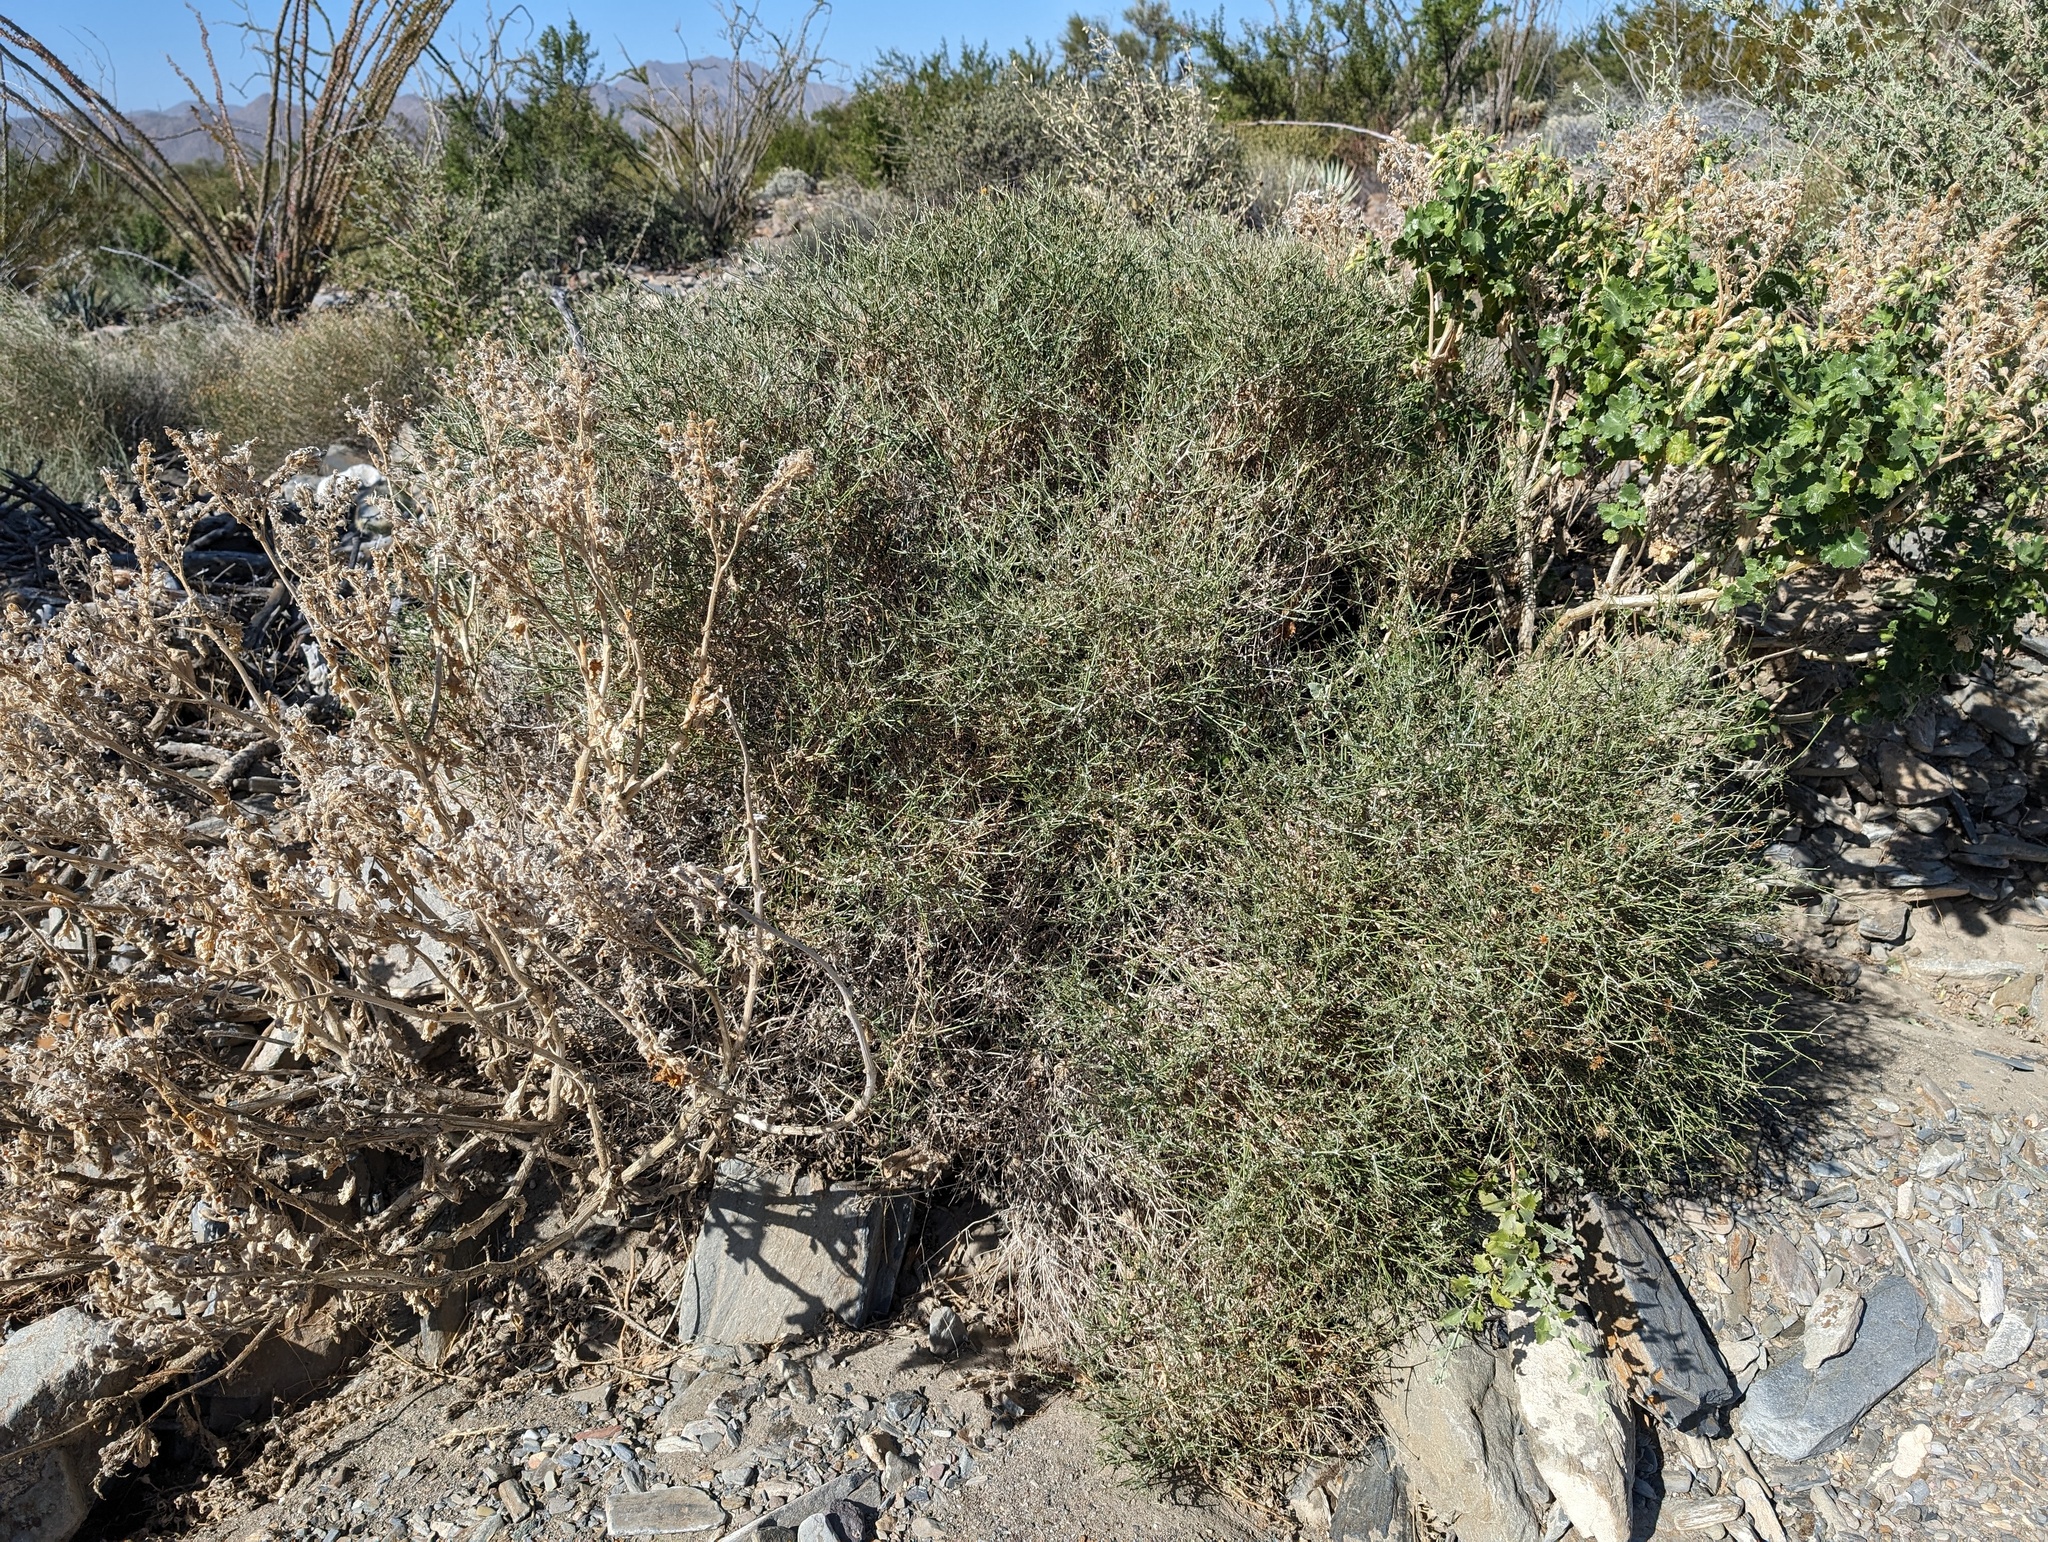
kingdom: Plantae
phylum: Tracheophyta
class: Magnoliopsida
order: Asterales
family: Asteraceae
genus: Bebbia
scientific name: Bebbia juncea
